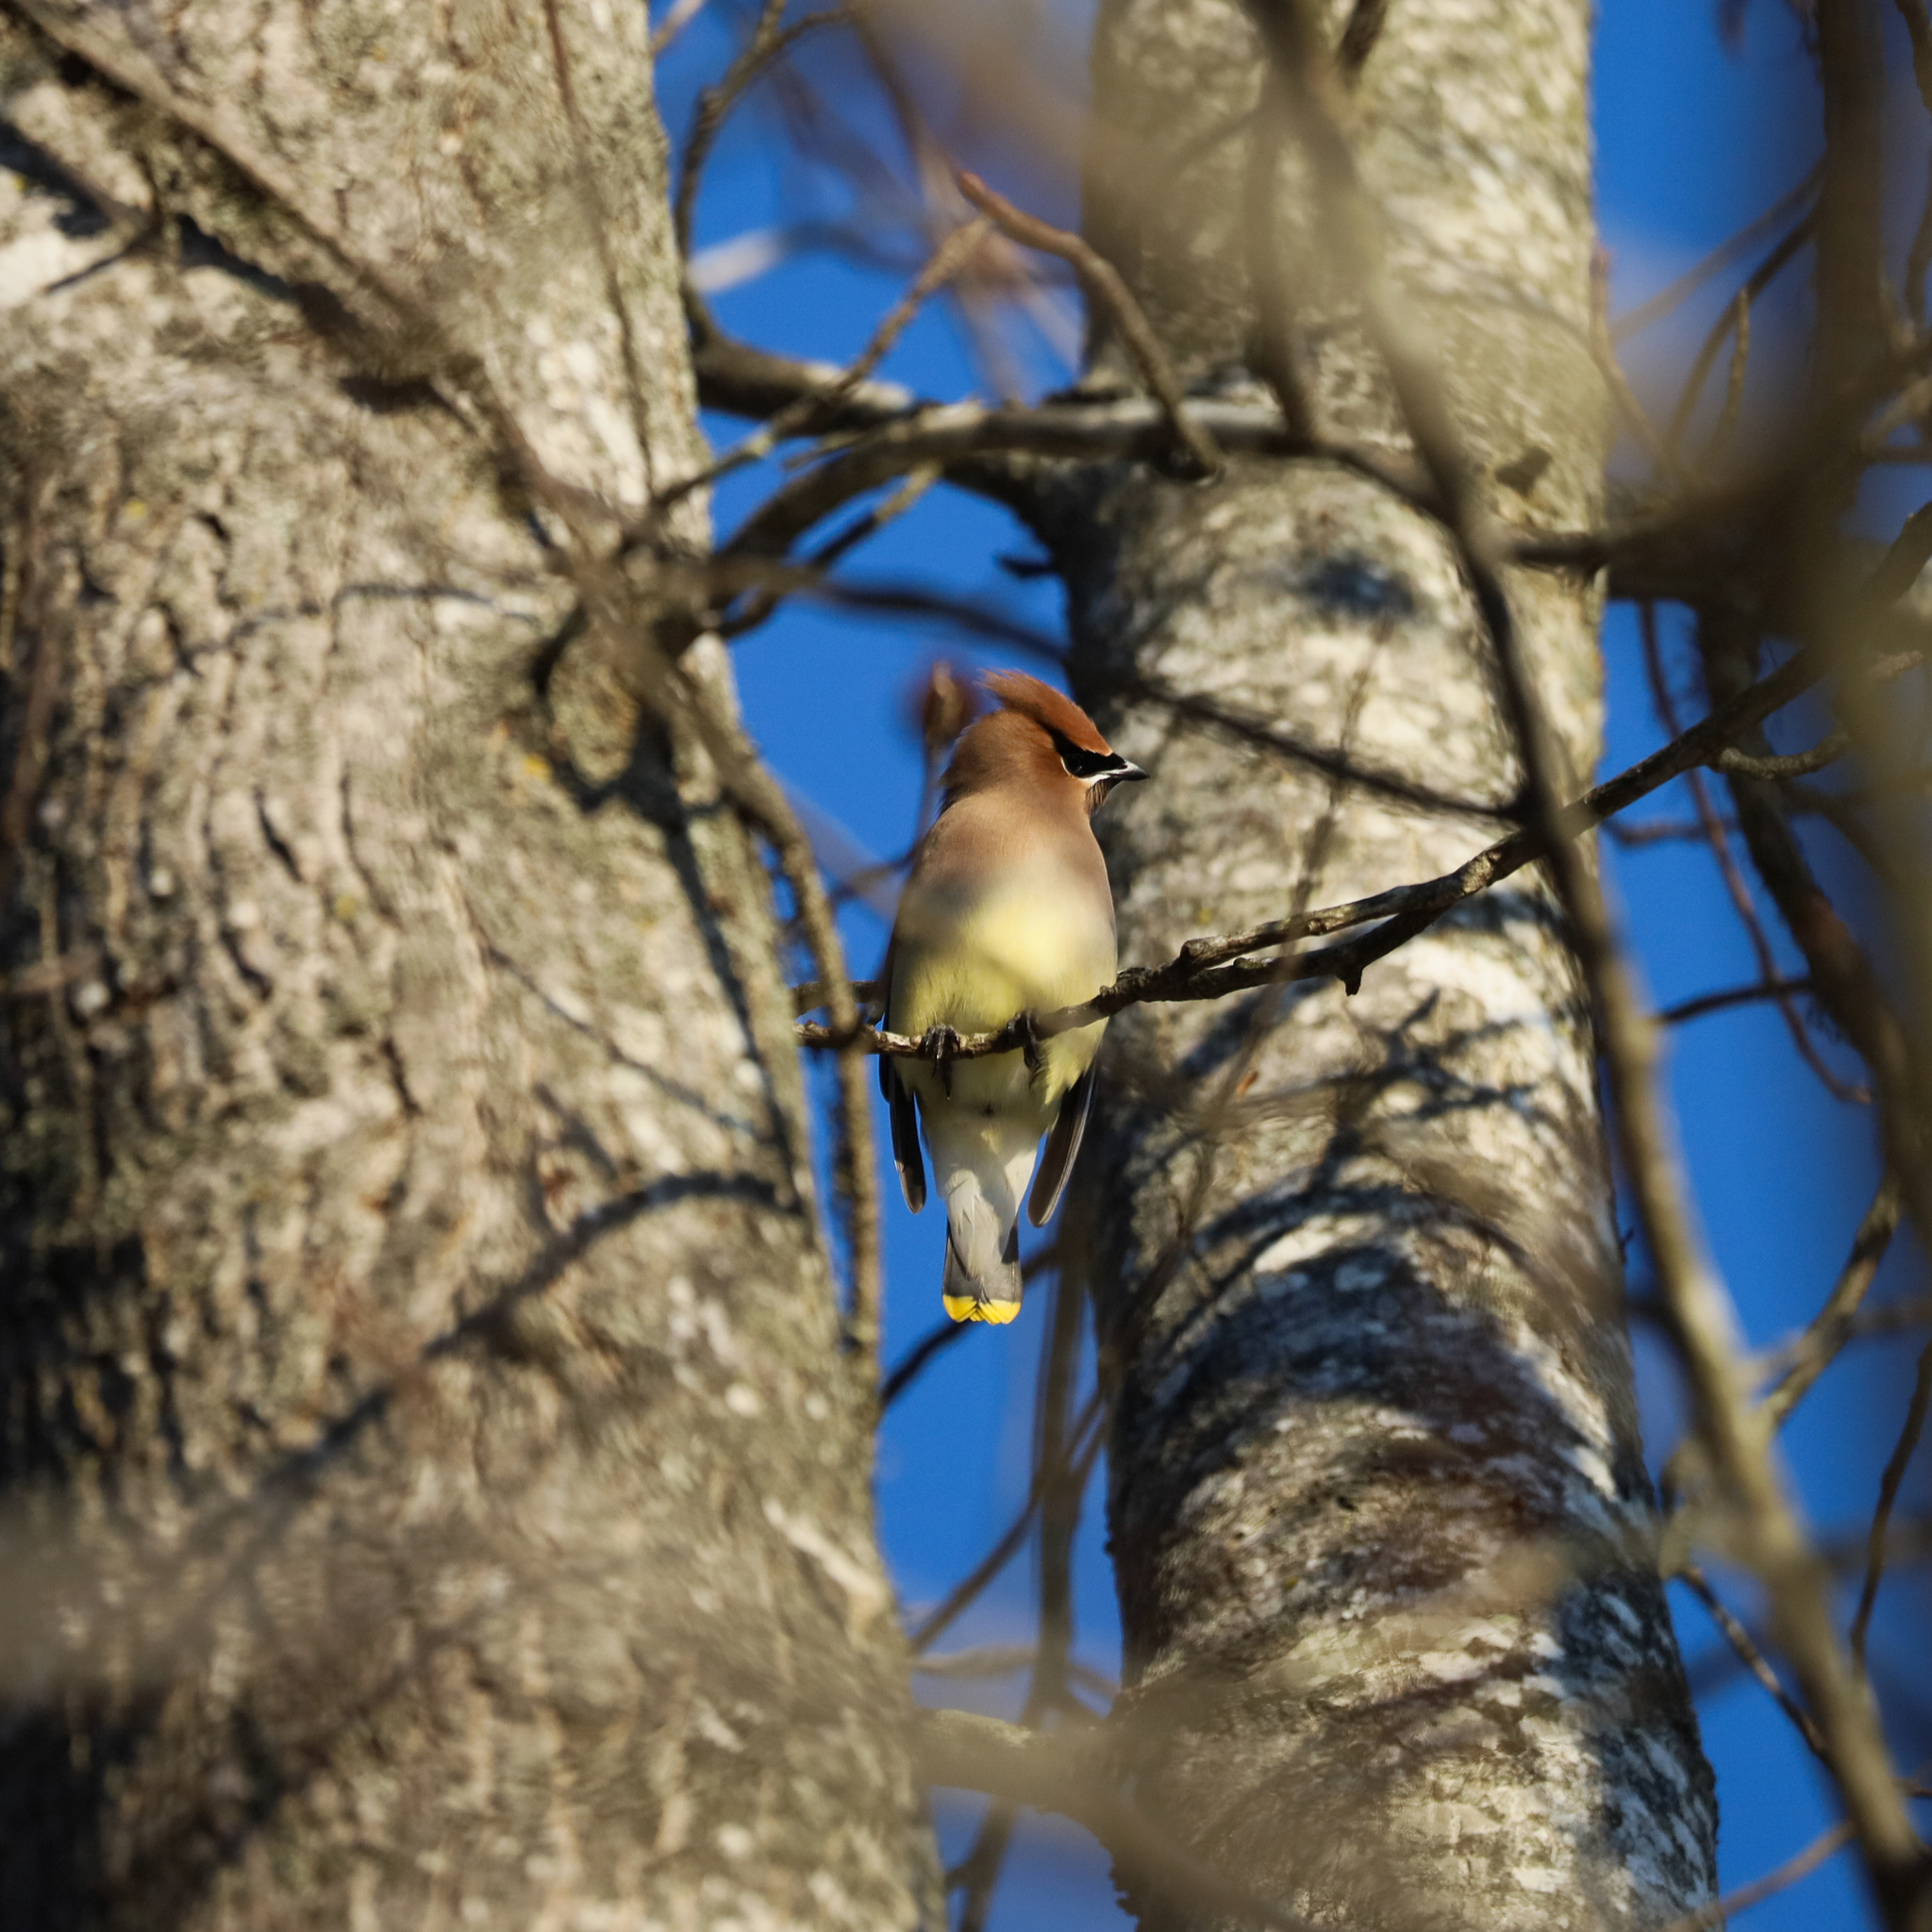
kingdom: Animalia
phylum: Chordata
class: Aves
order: Passeriformes
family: Bombycillidae
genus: Bombycilla
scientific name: Bombycilla cedrorum
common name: Cedar waxwing
